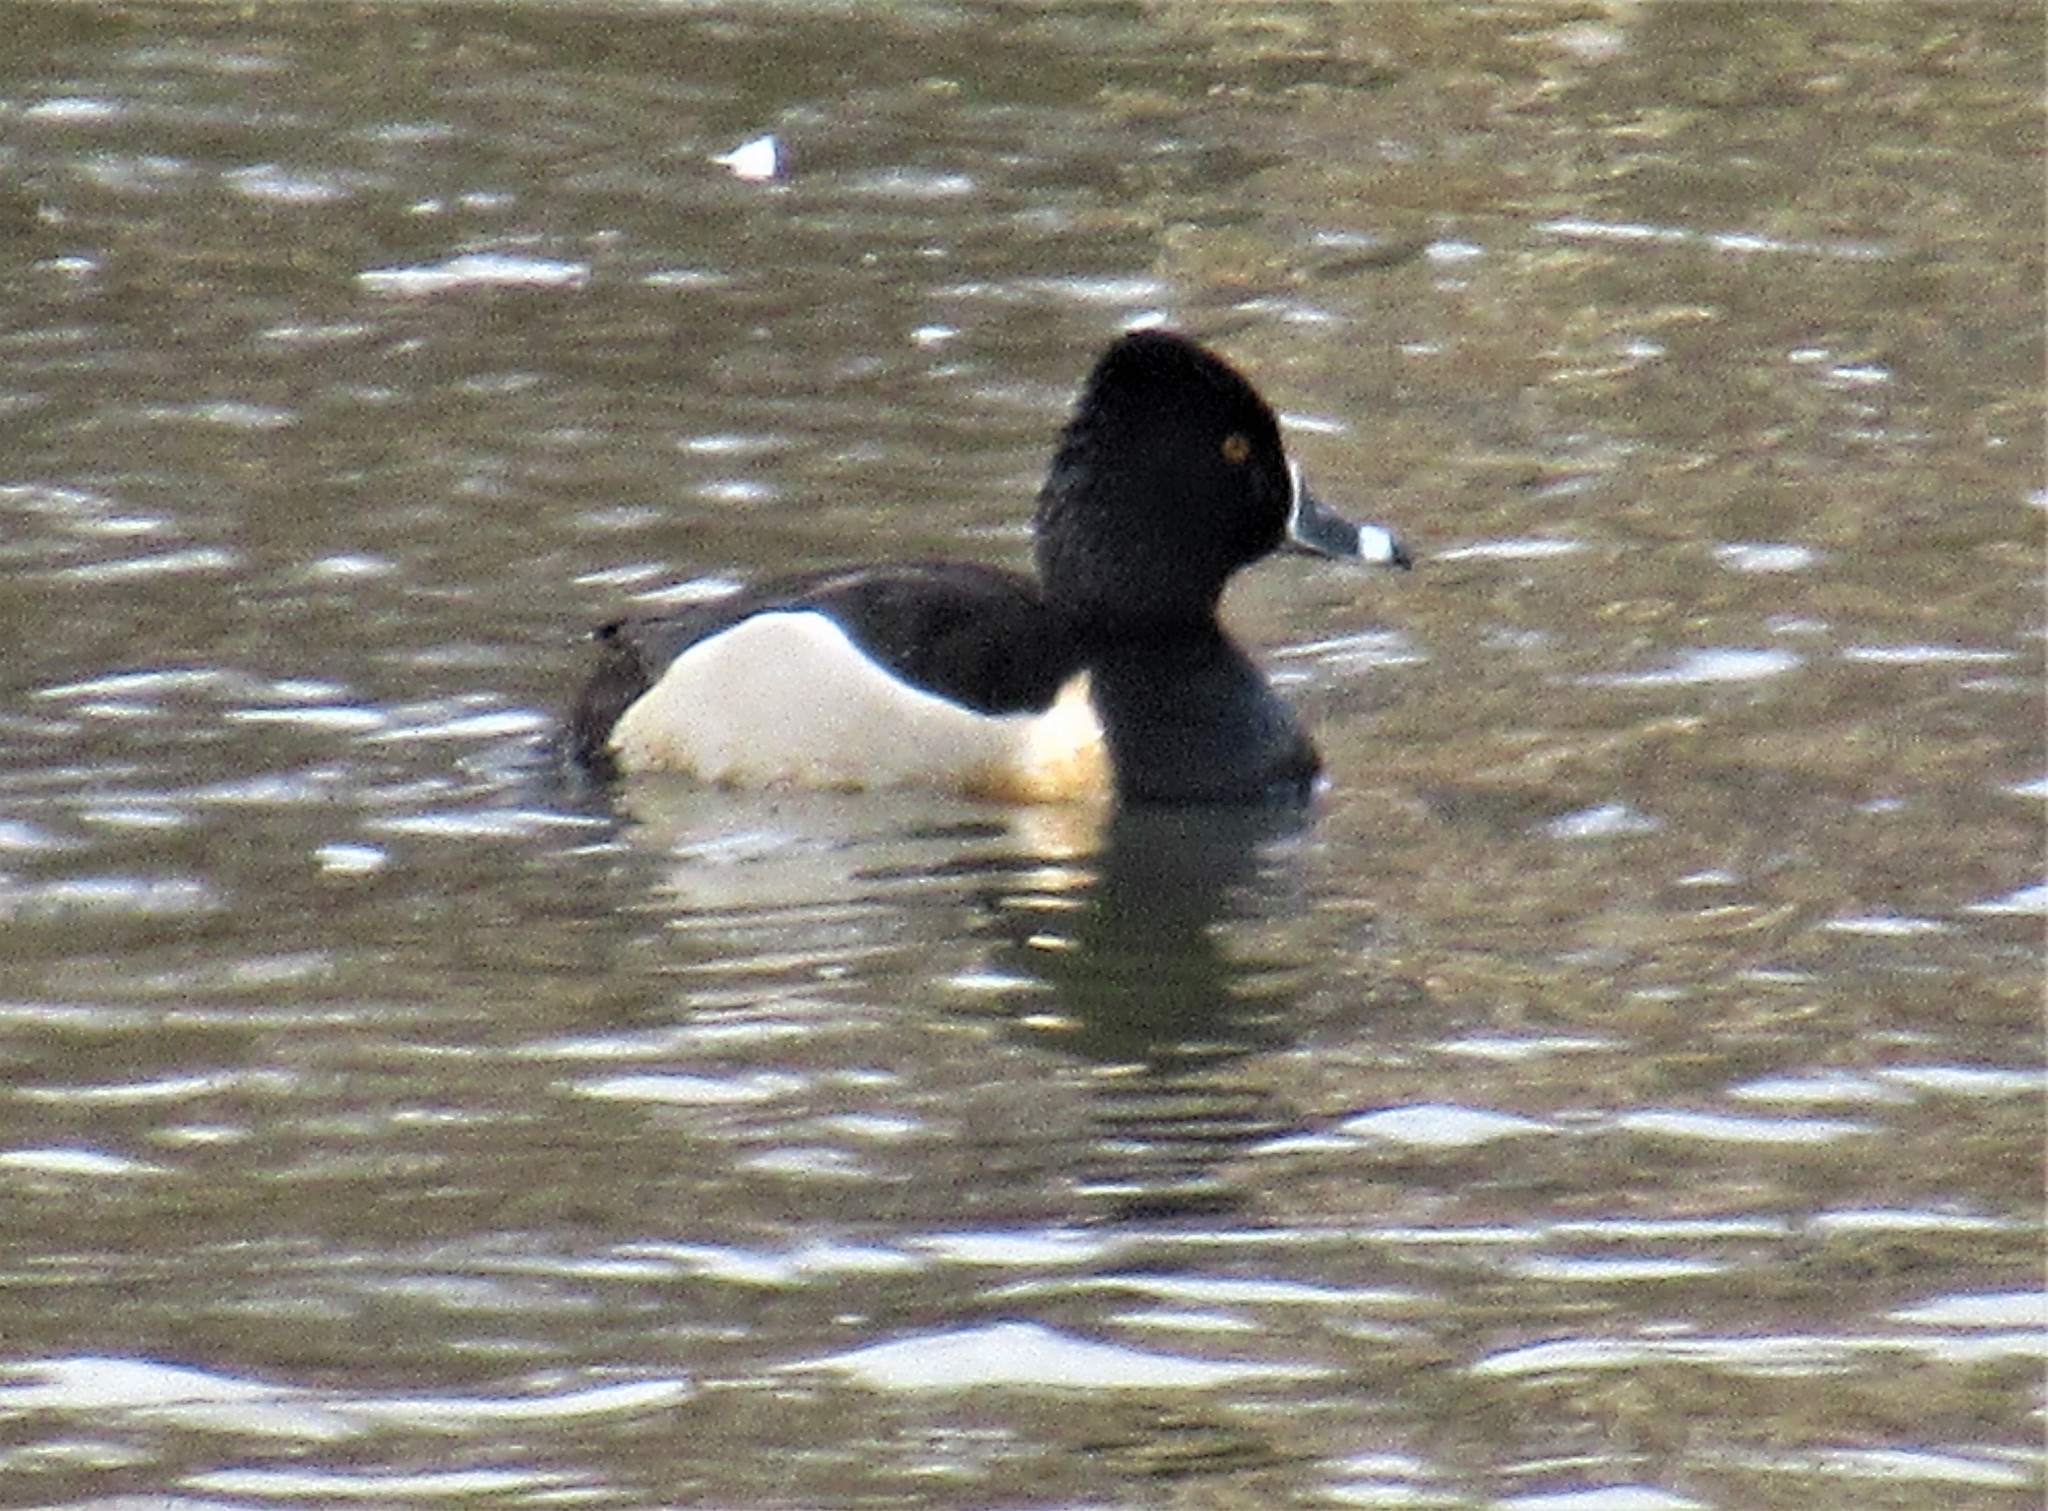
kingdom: Animalia
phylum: Chordata
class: Aves
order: Anseriformes
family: Anatidae
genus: Aythya
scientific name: Aythya collaris
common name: Ring-necked duck
